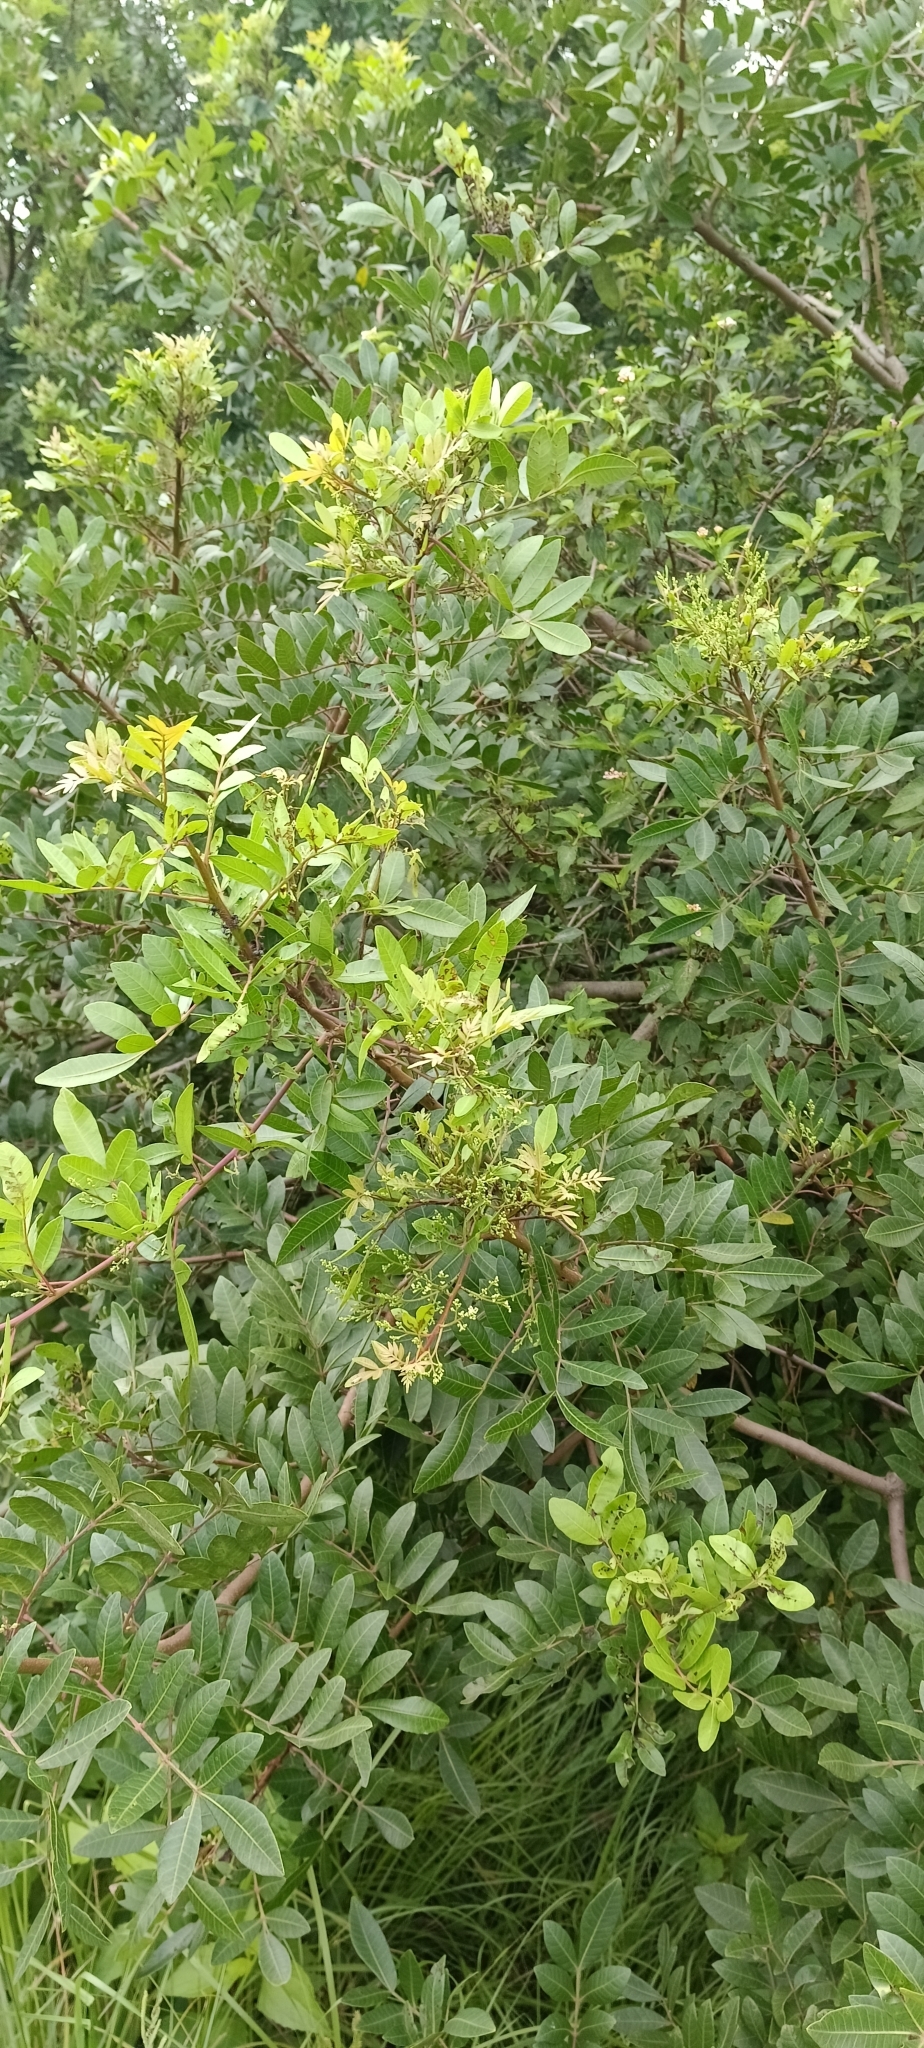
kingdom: Plantae
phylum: Tracheophyta
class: Magnoliopsida
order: Sapindales
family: Anacardiaceae
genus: Schinus
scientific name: Schinus terebinthifolia
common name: Brazilian peppertree
